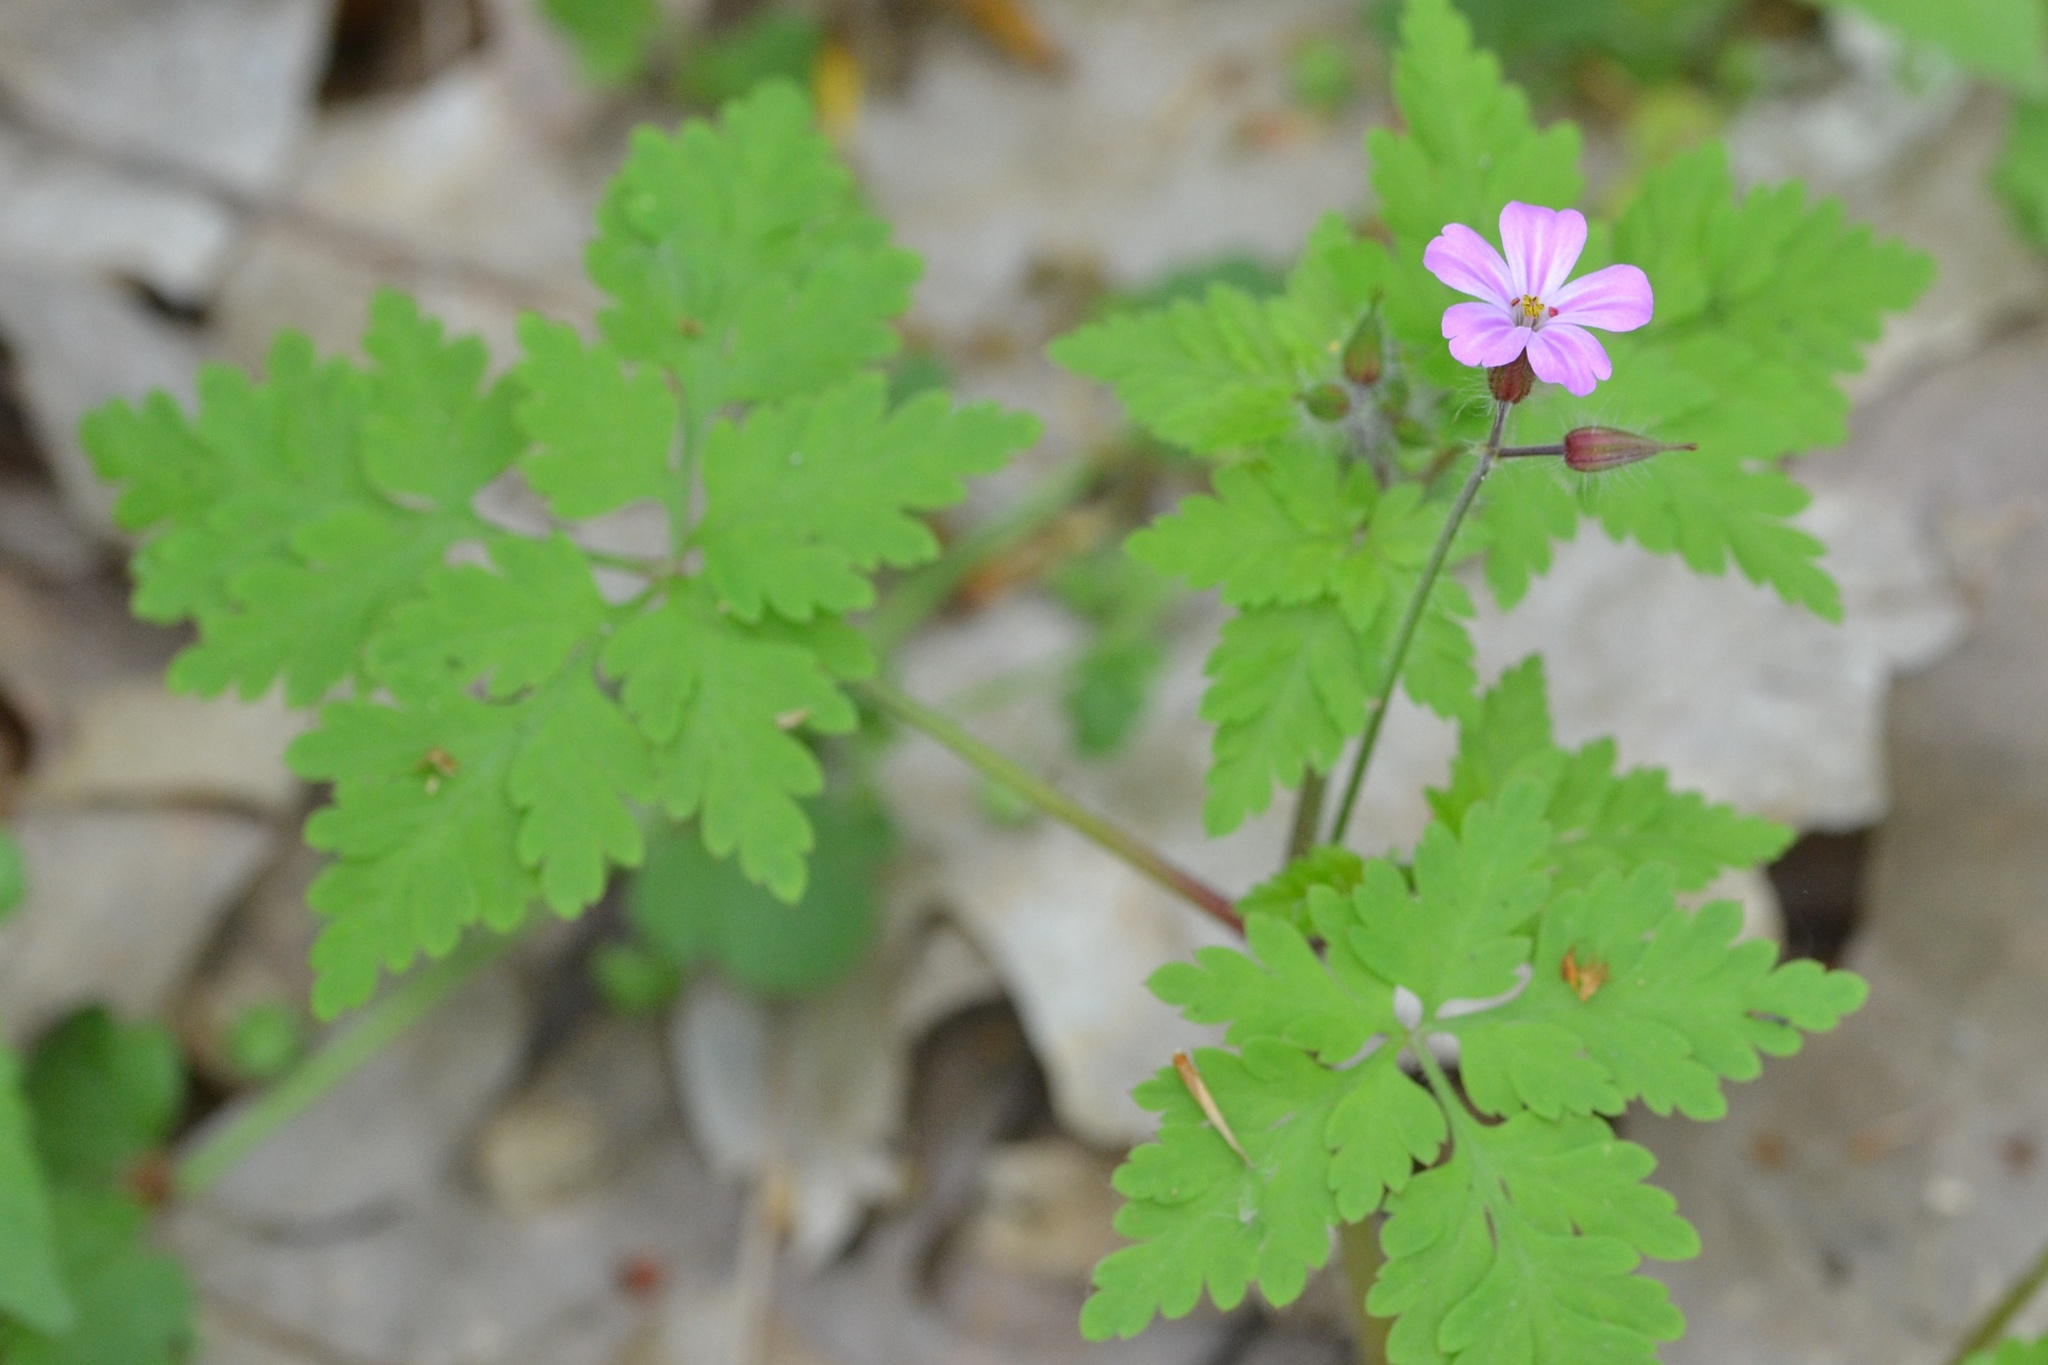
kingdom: Plantae
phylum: Tracheophyta
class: Magnoliopsida
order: Geraniales
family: Geraniaceae
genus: Geranium
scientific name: Geranium robertianum
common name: Herb-robert
